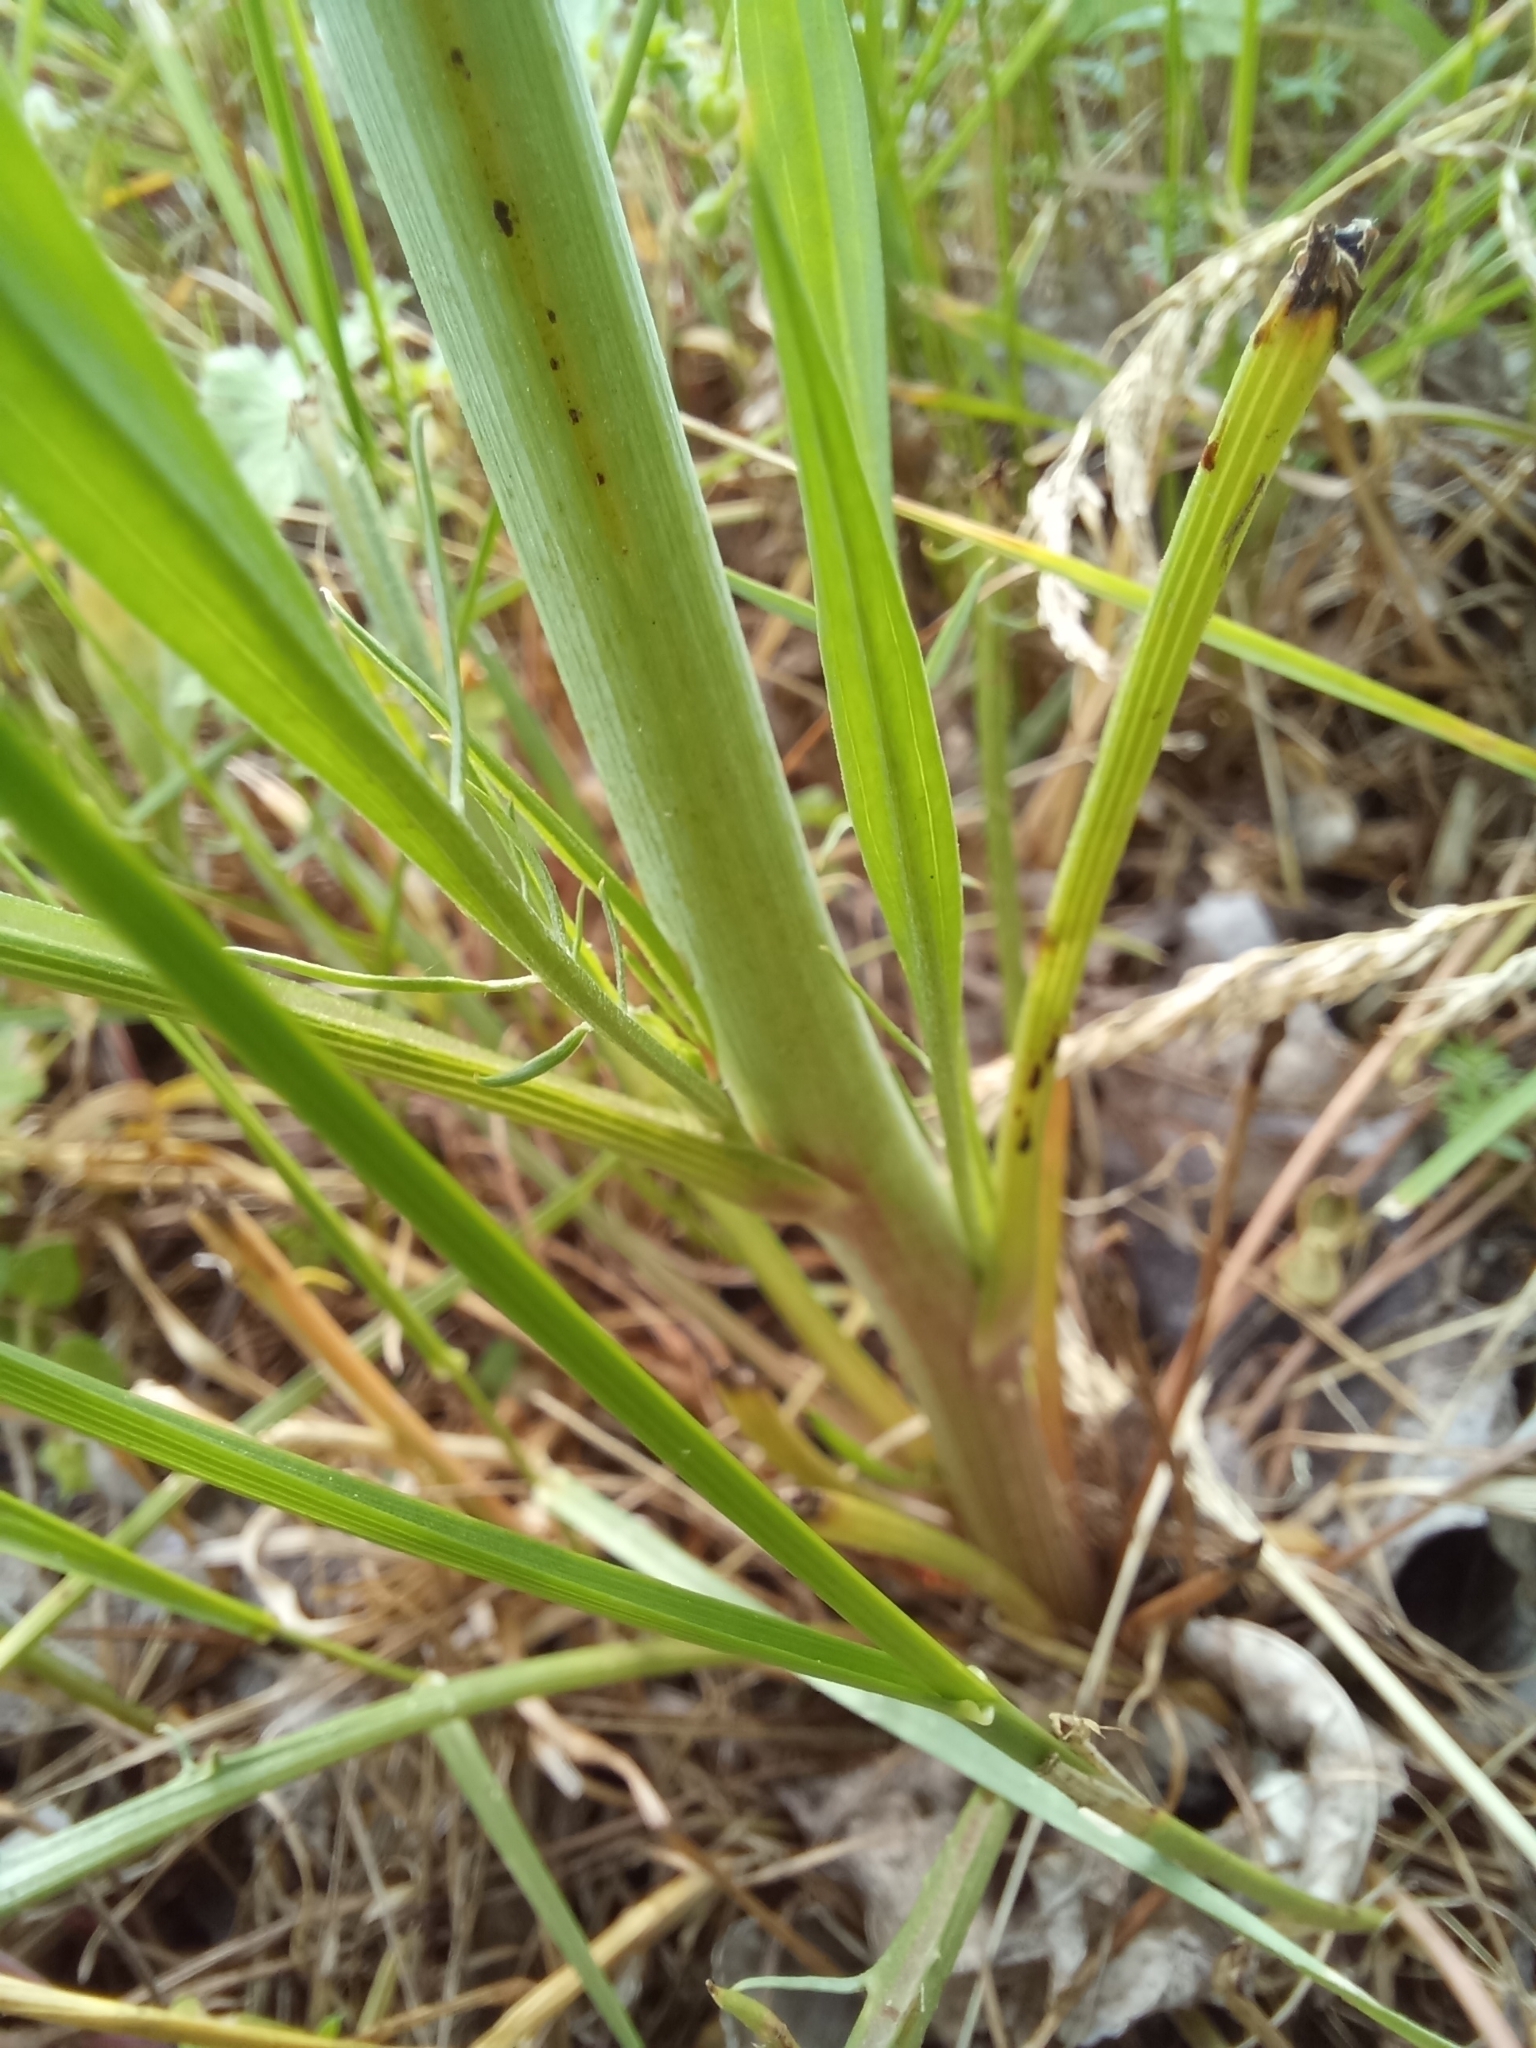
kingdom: Plantae
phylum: Tracheophyta
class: Magnoliopsida
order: Asterales
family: Asteraceae
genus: Scorzonera
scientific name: Scorzonera laciniata
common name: Cutleaf vipergrass
